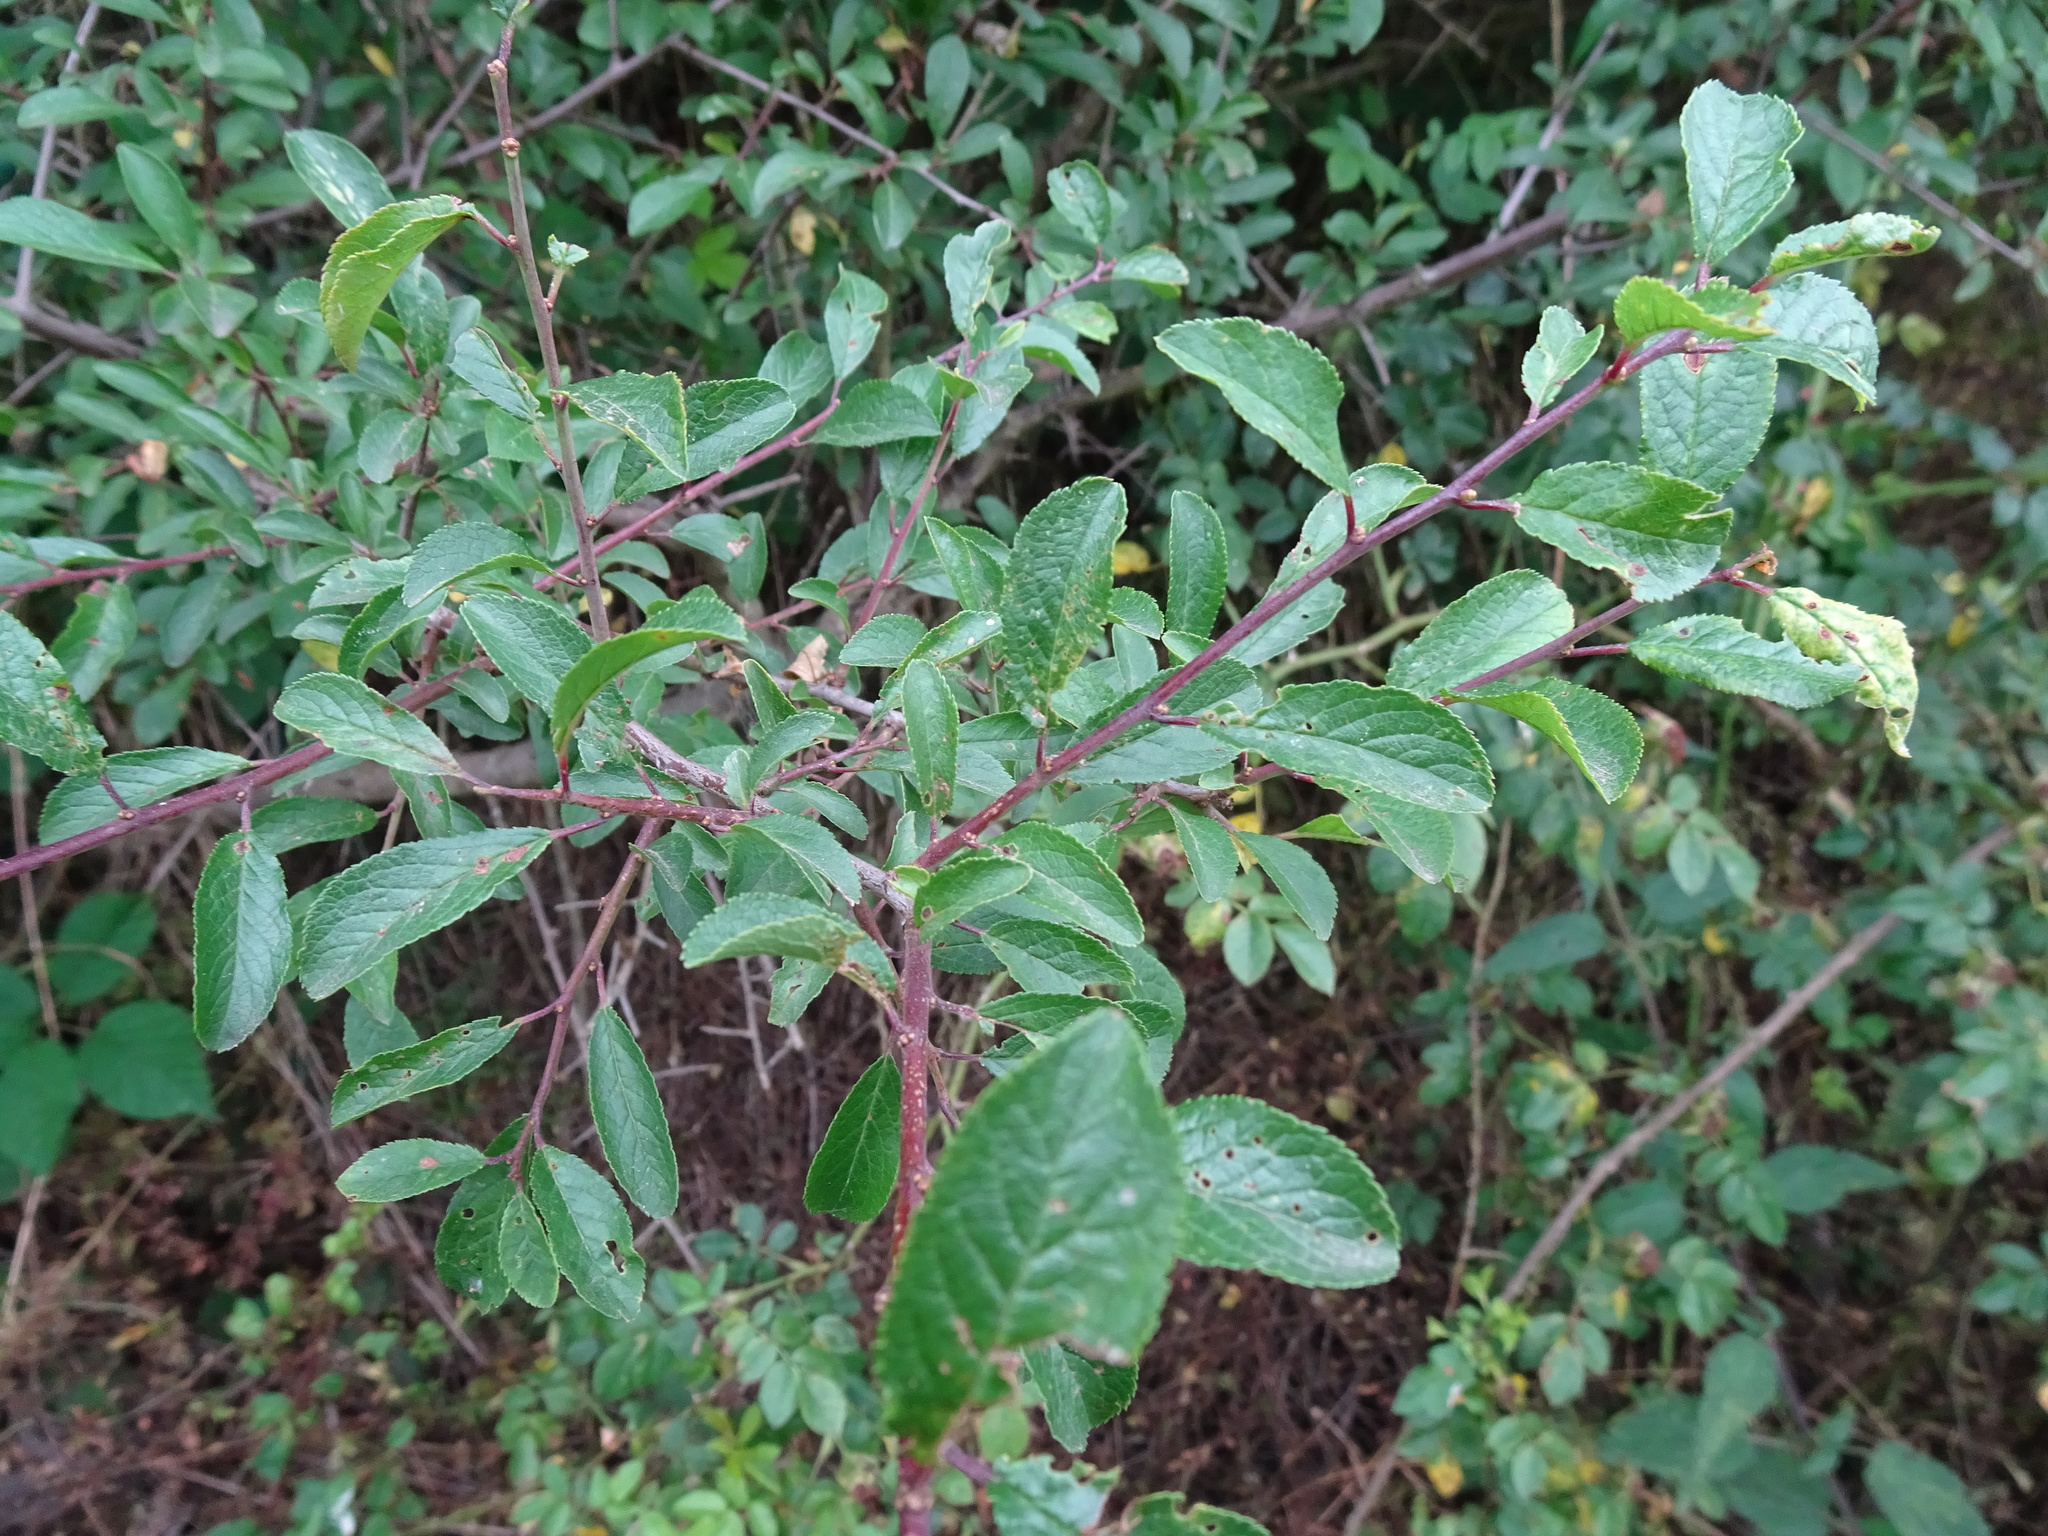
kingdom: Plantae
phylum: Tracheophyta
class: Magnoliopsida
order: Rosales
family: Rosaceae
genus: Prunus
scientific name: Prunus spinosa
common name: Blackthorn
